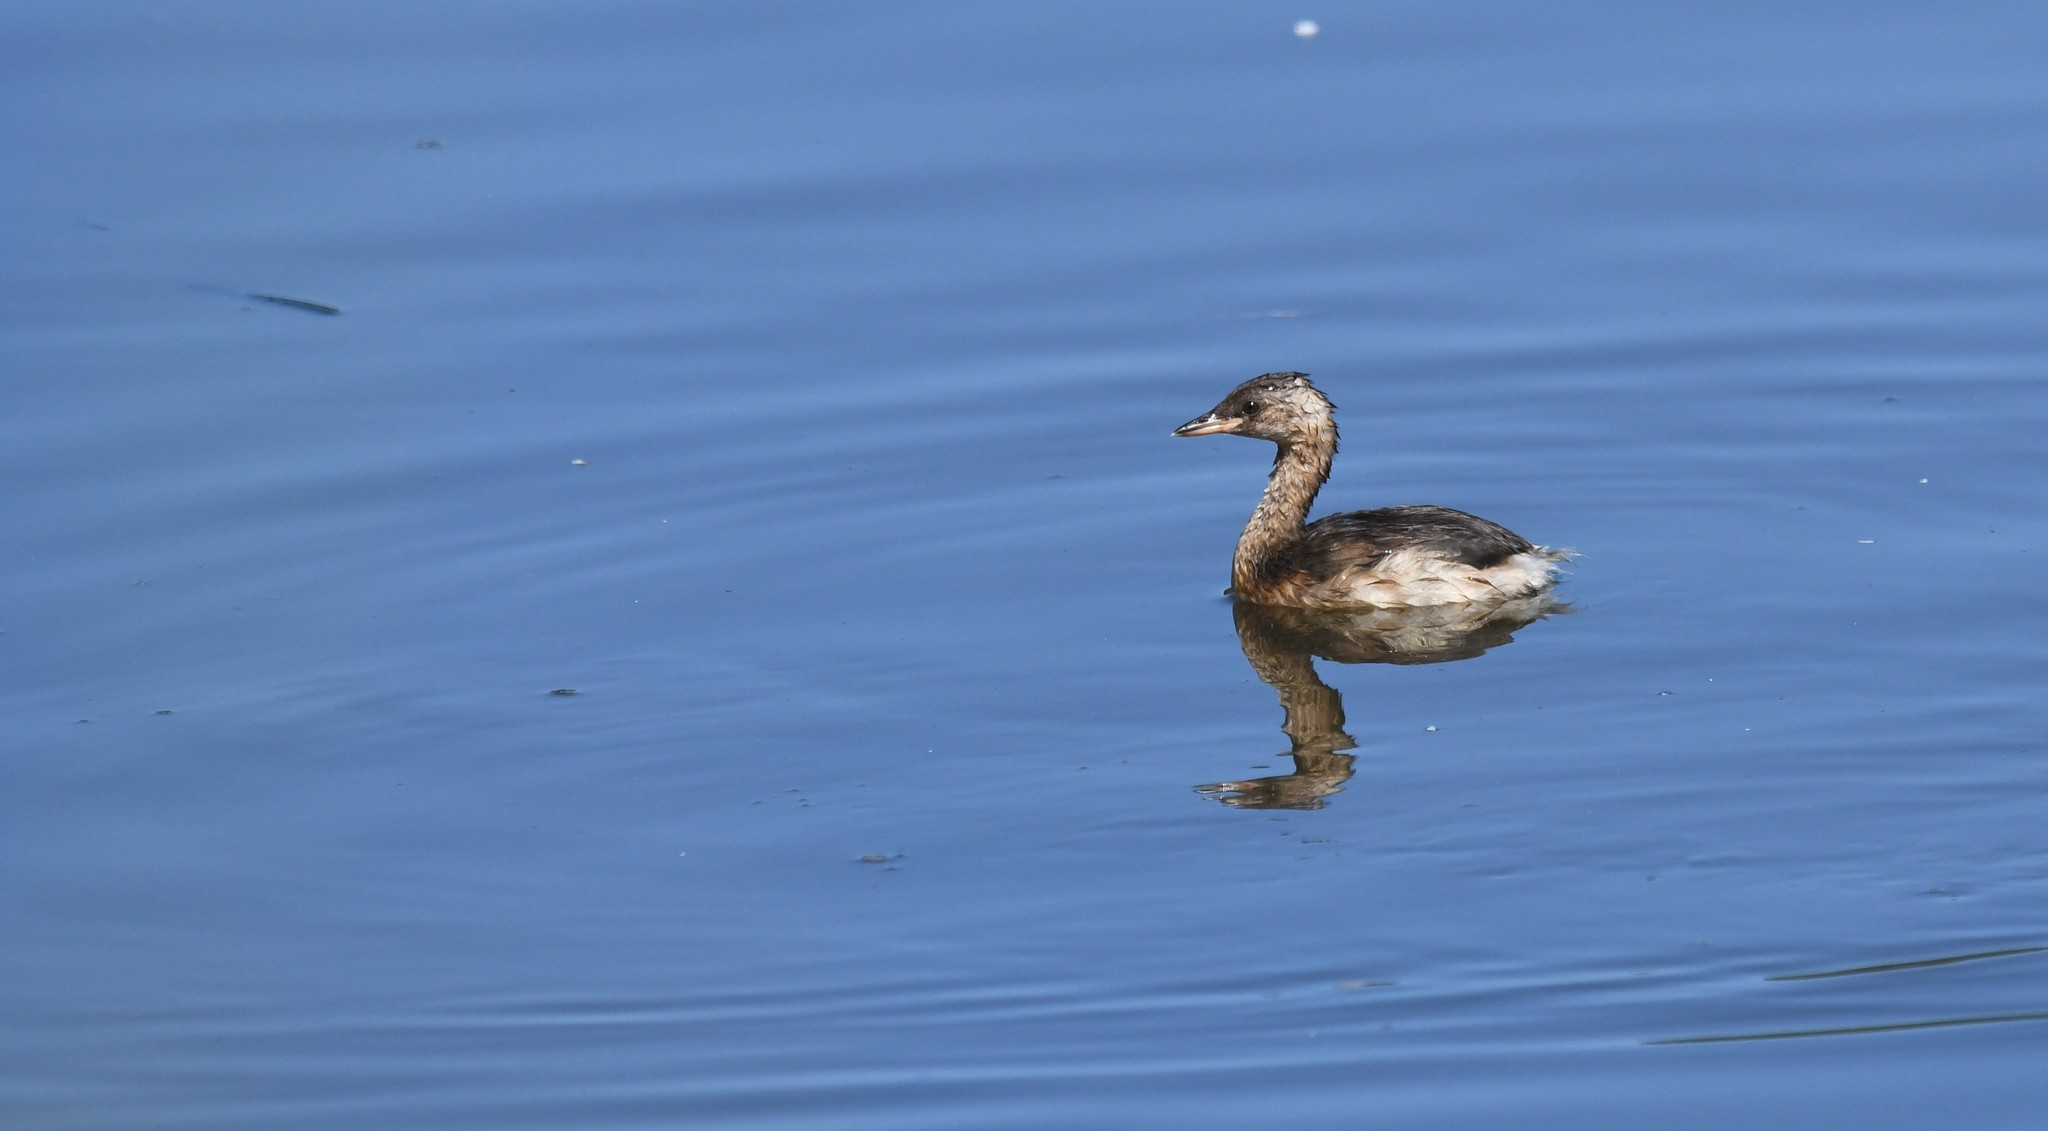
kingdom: Animalia
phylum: Chordata
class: Aves
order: Podicipediformes
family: Podicipedidae
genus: Tachybaptus
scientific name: Tachybaptus ruficollis
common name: Little grebe
